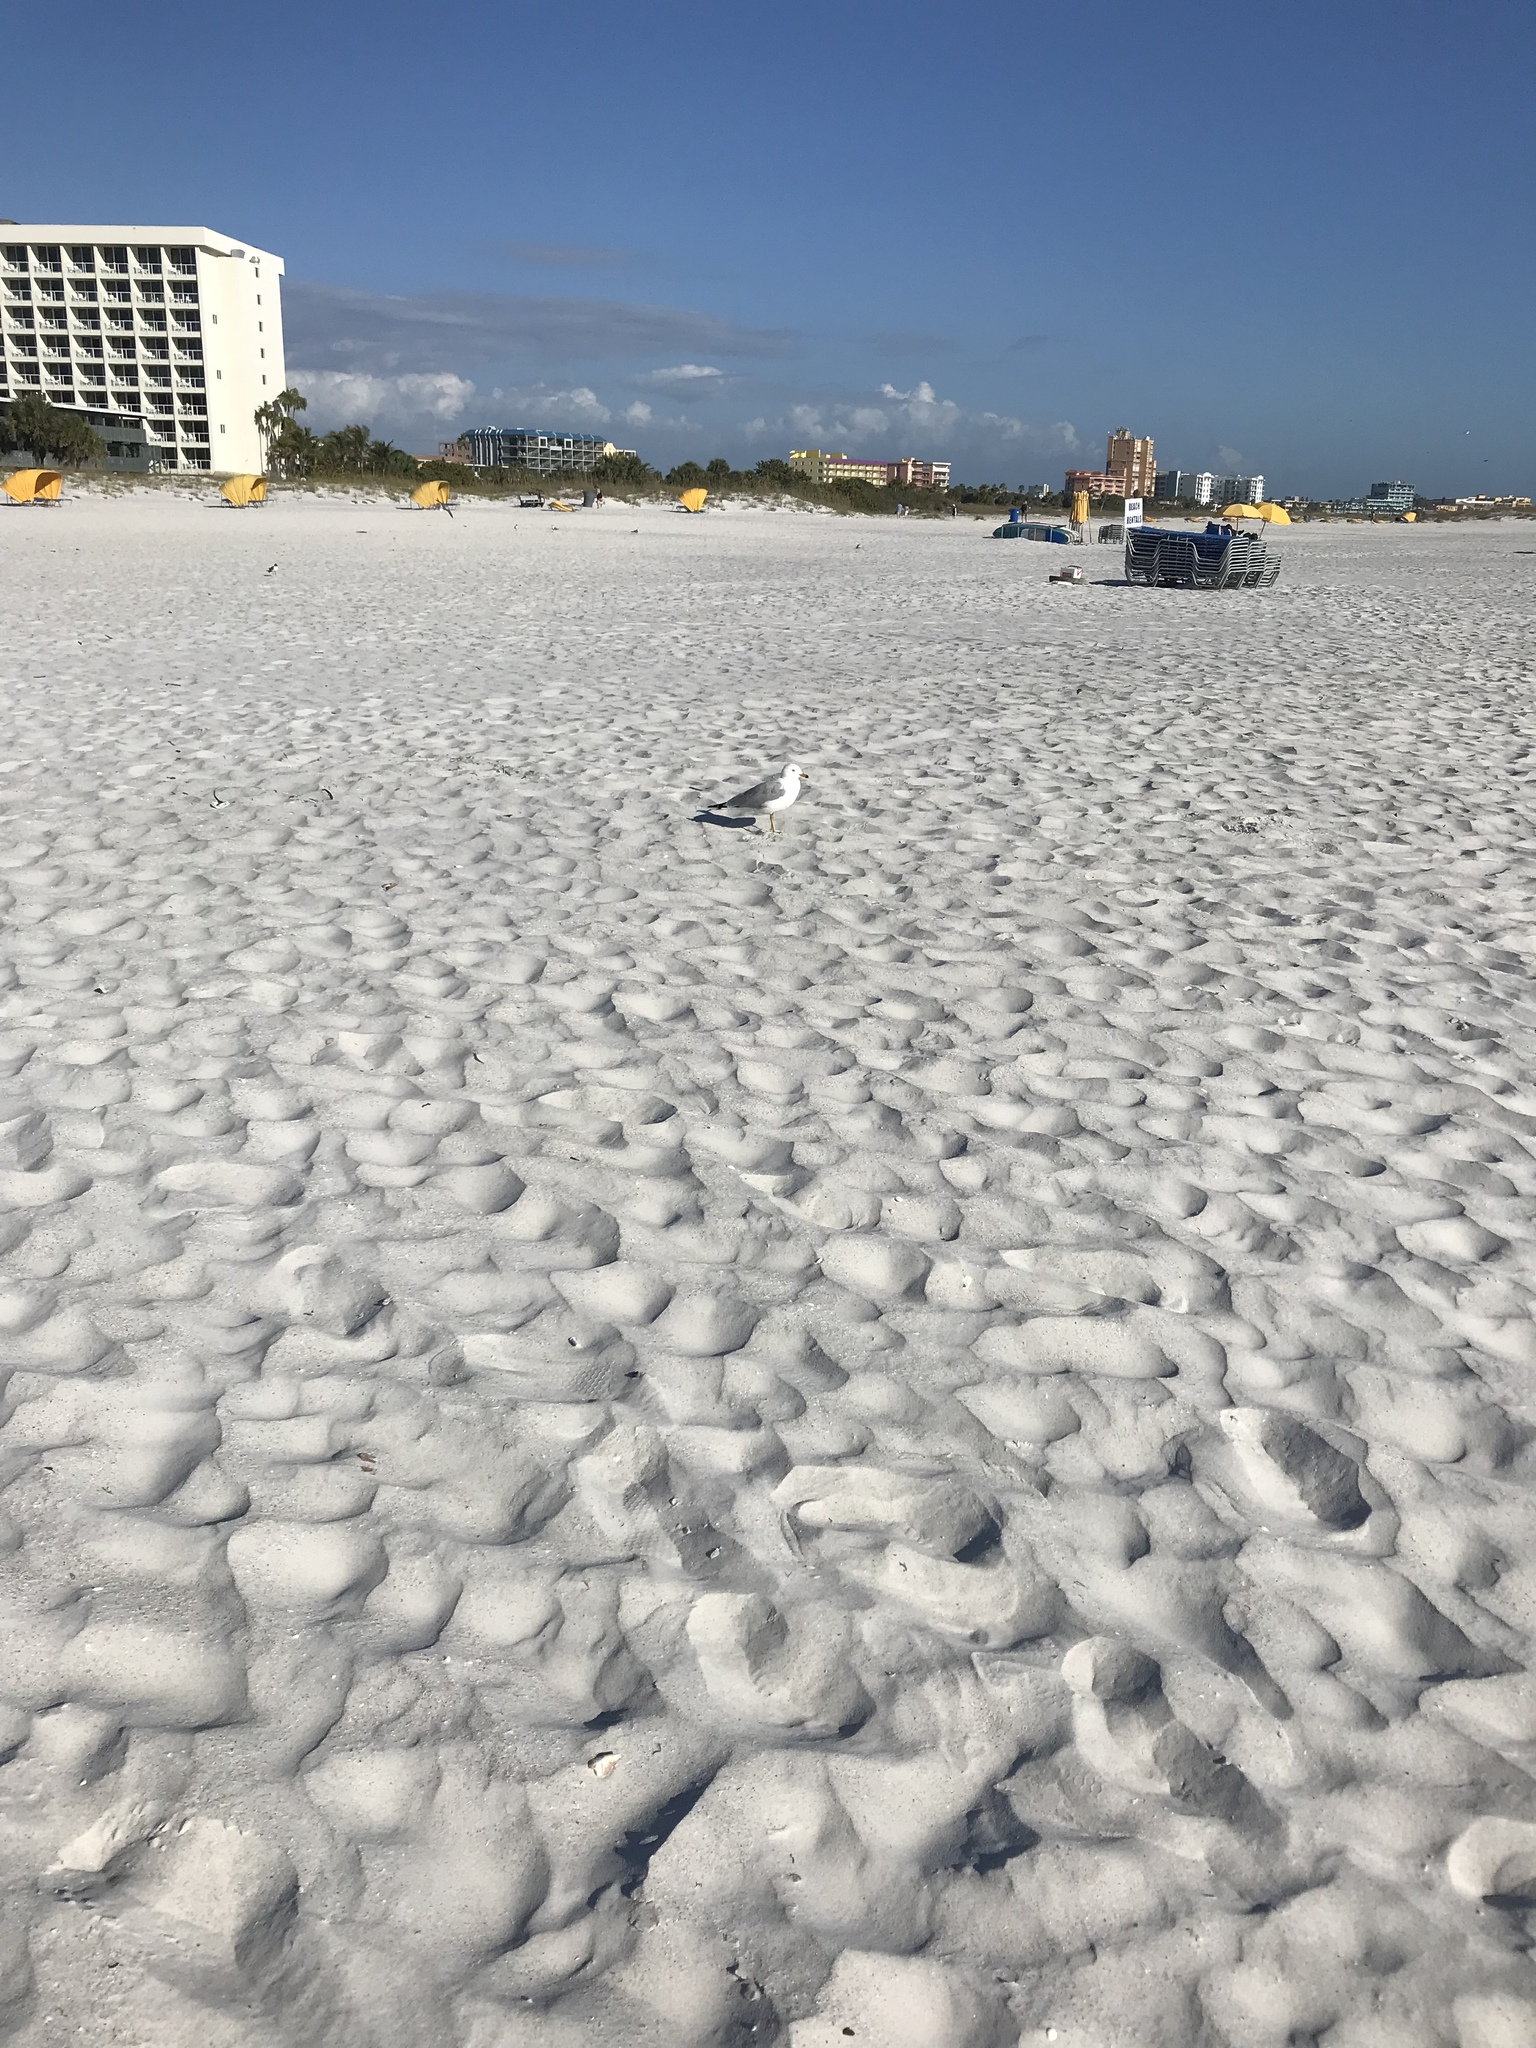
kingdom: Animalia
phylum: Chordata
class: Aves
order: Charadriiformes
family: Laridae
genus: Larus
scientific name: Larus delawarensis
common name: Ring-billed gull
